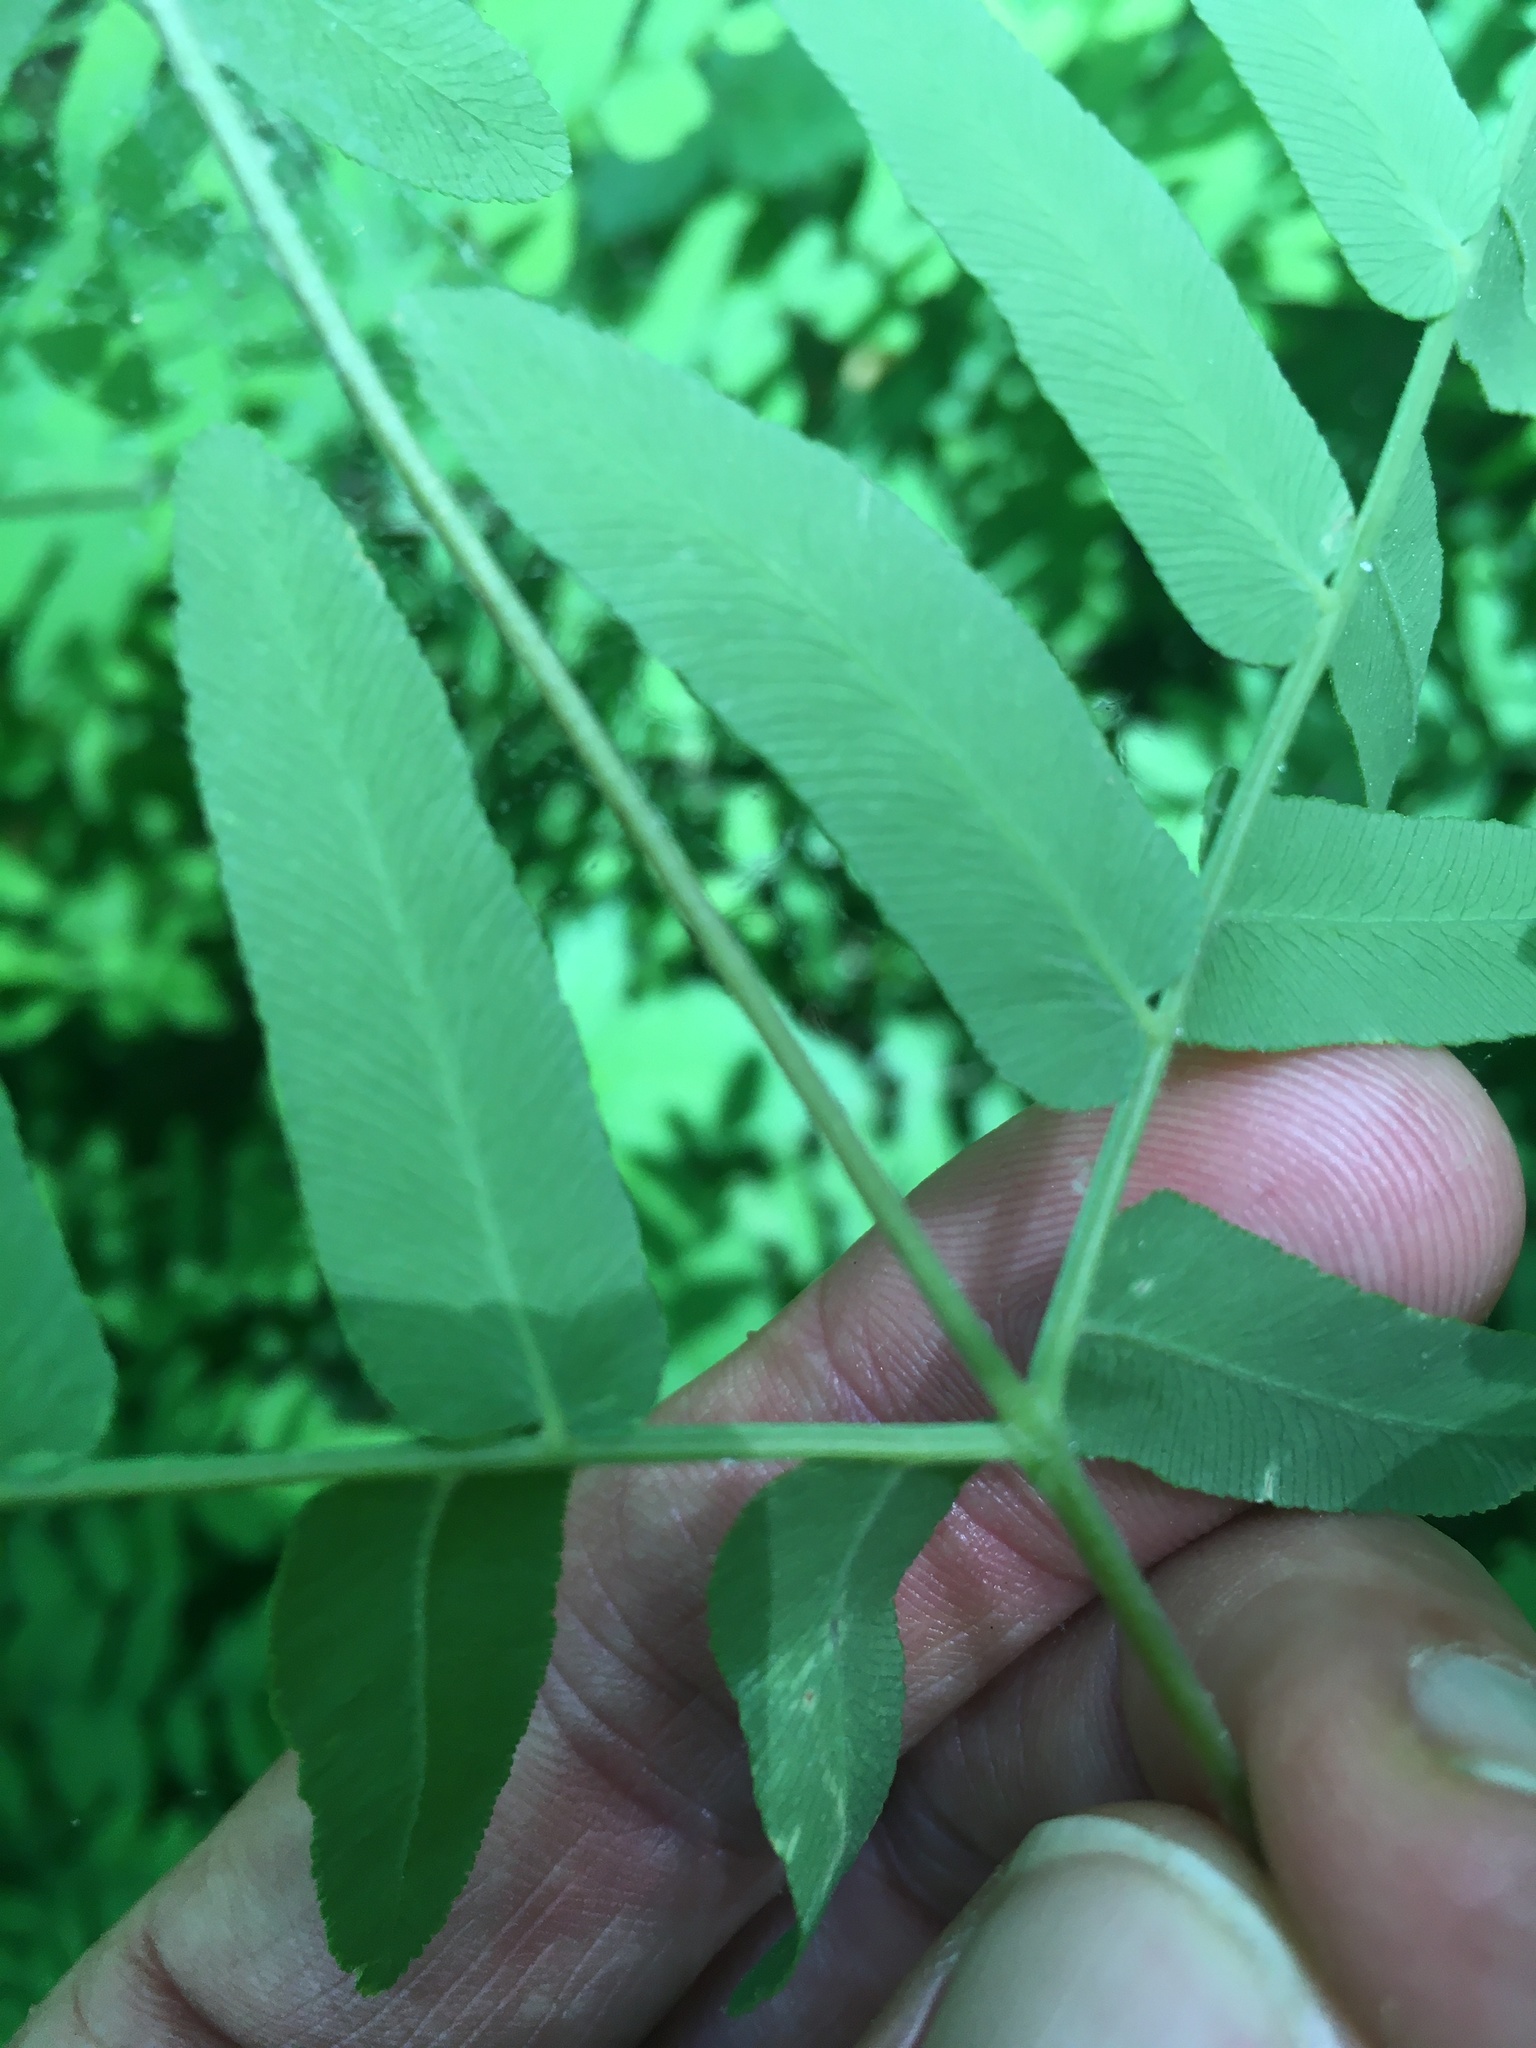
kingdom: Plantae
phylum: Tracheophyta
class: Polypodiopsida
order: Osmundales
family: Osmundaceae
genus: Osmunda
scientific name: Osmunda spectabilis
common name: American royal fern
